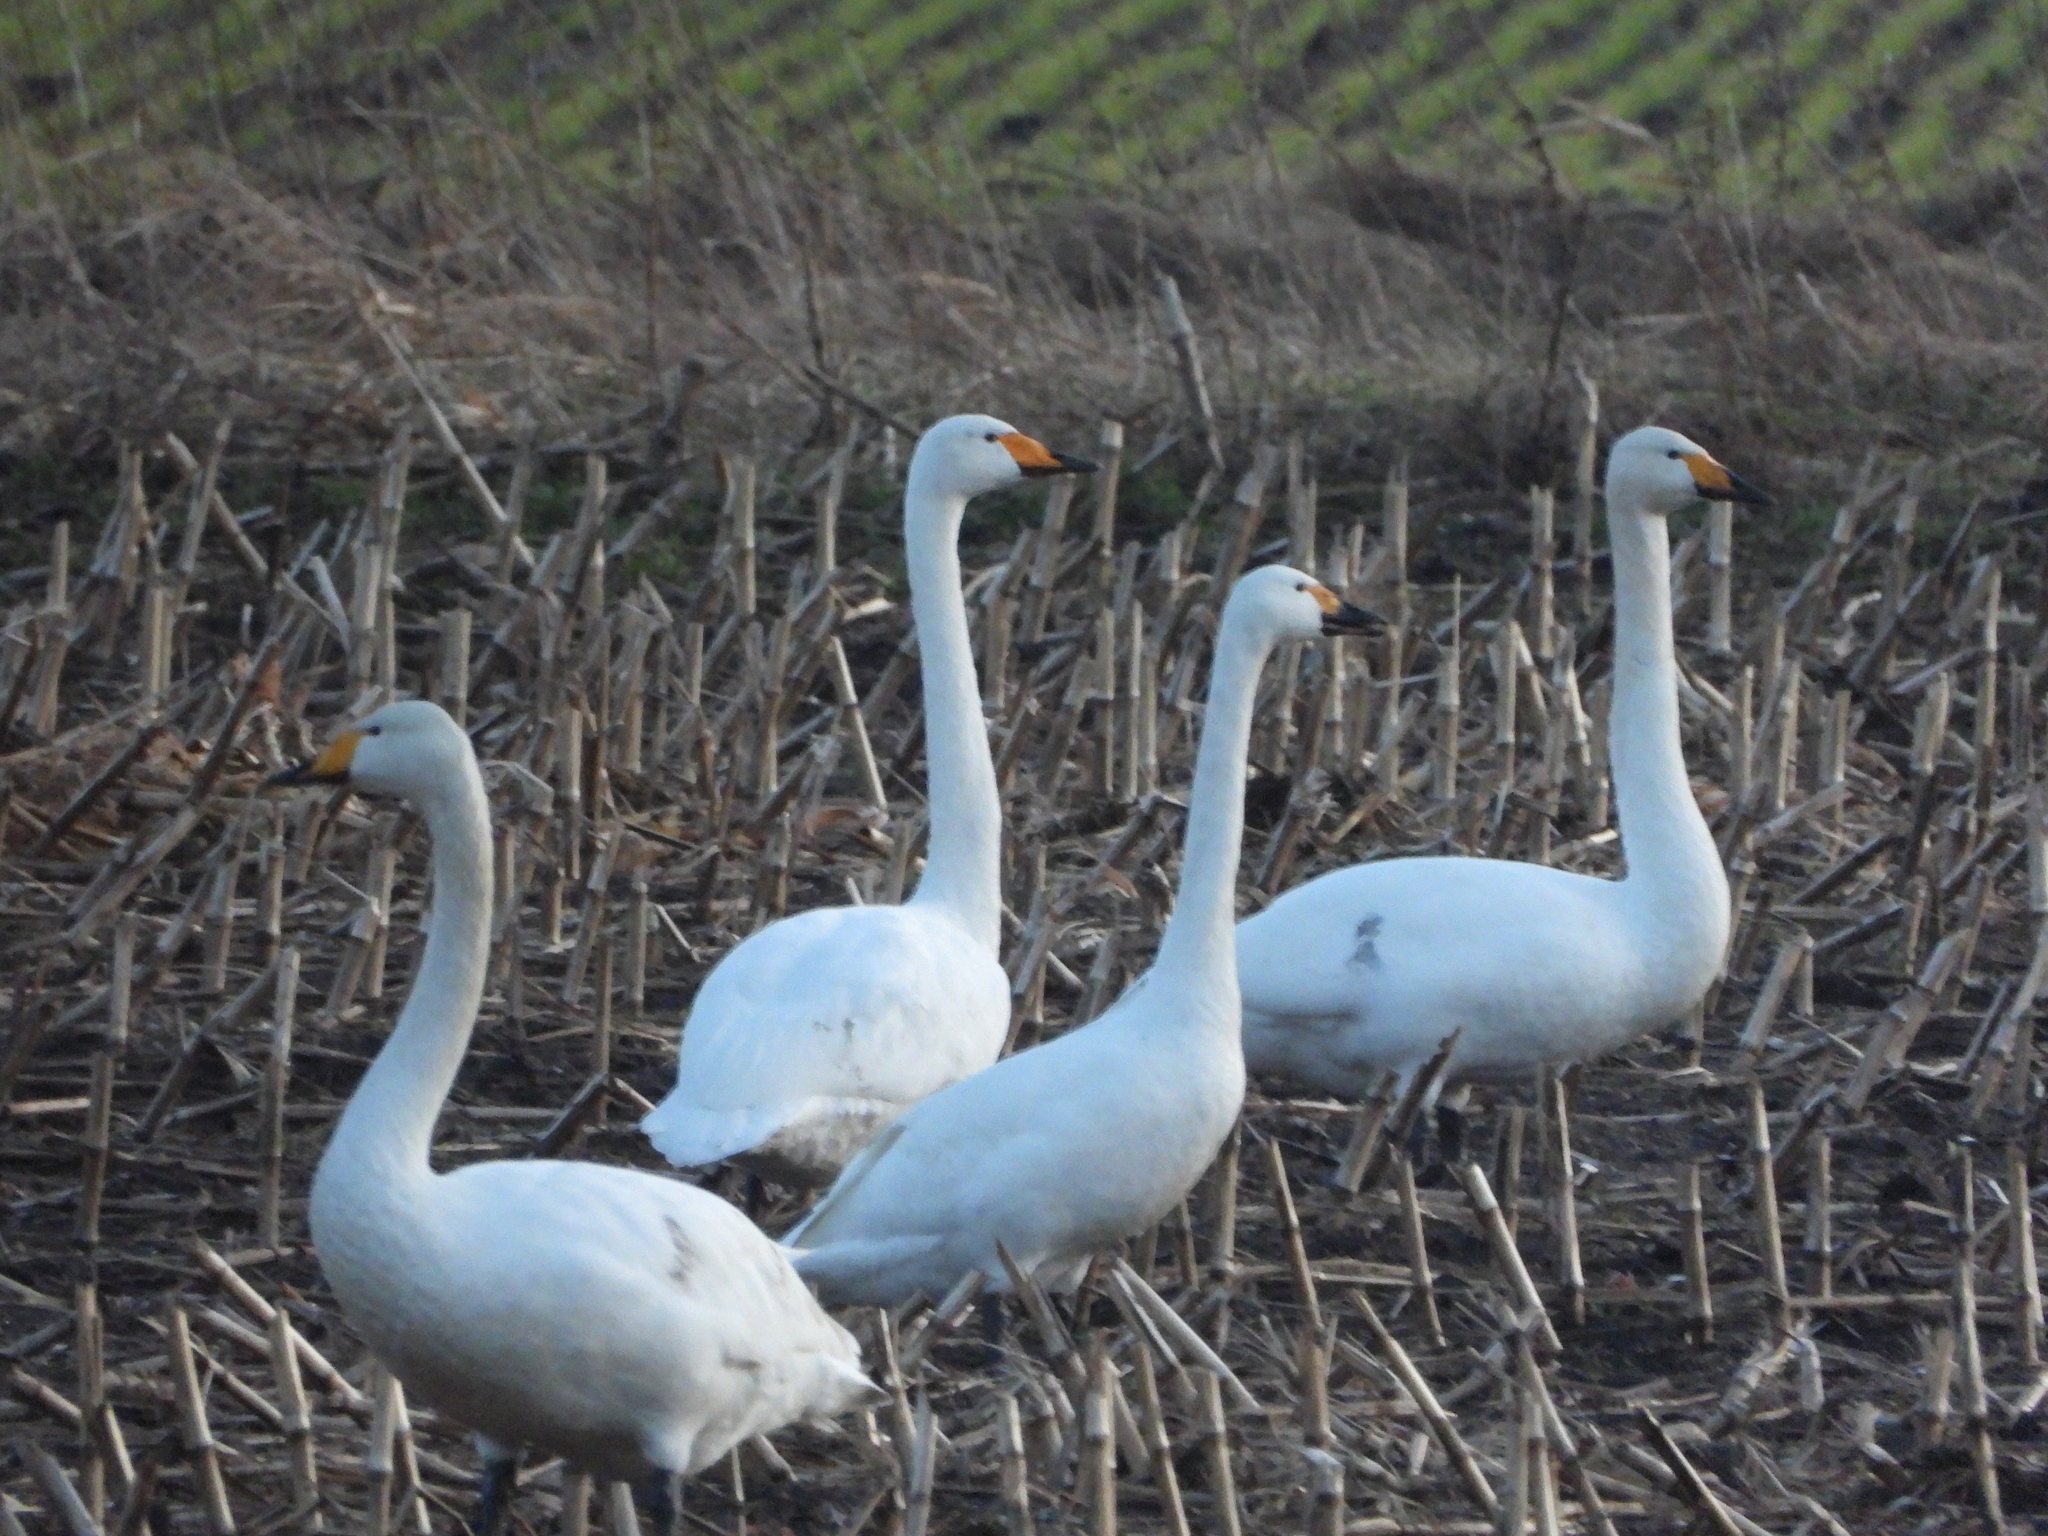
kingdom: Animalia
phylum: Chordata
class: Aves
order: Anseriformes
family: Anatidae
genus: Cygnus
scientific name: Cygnus cygnus
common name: Whooper swan
